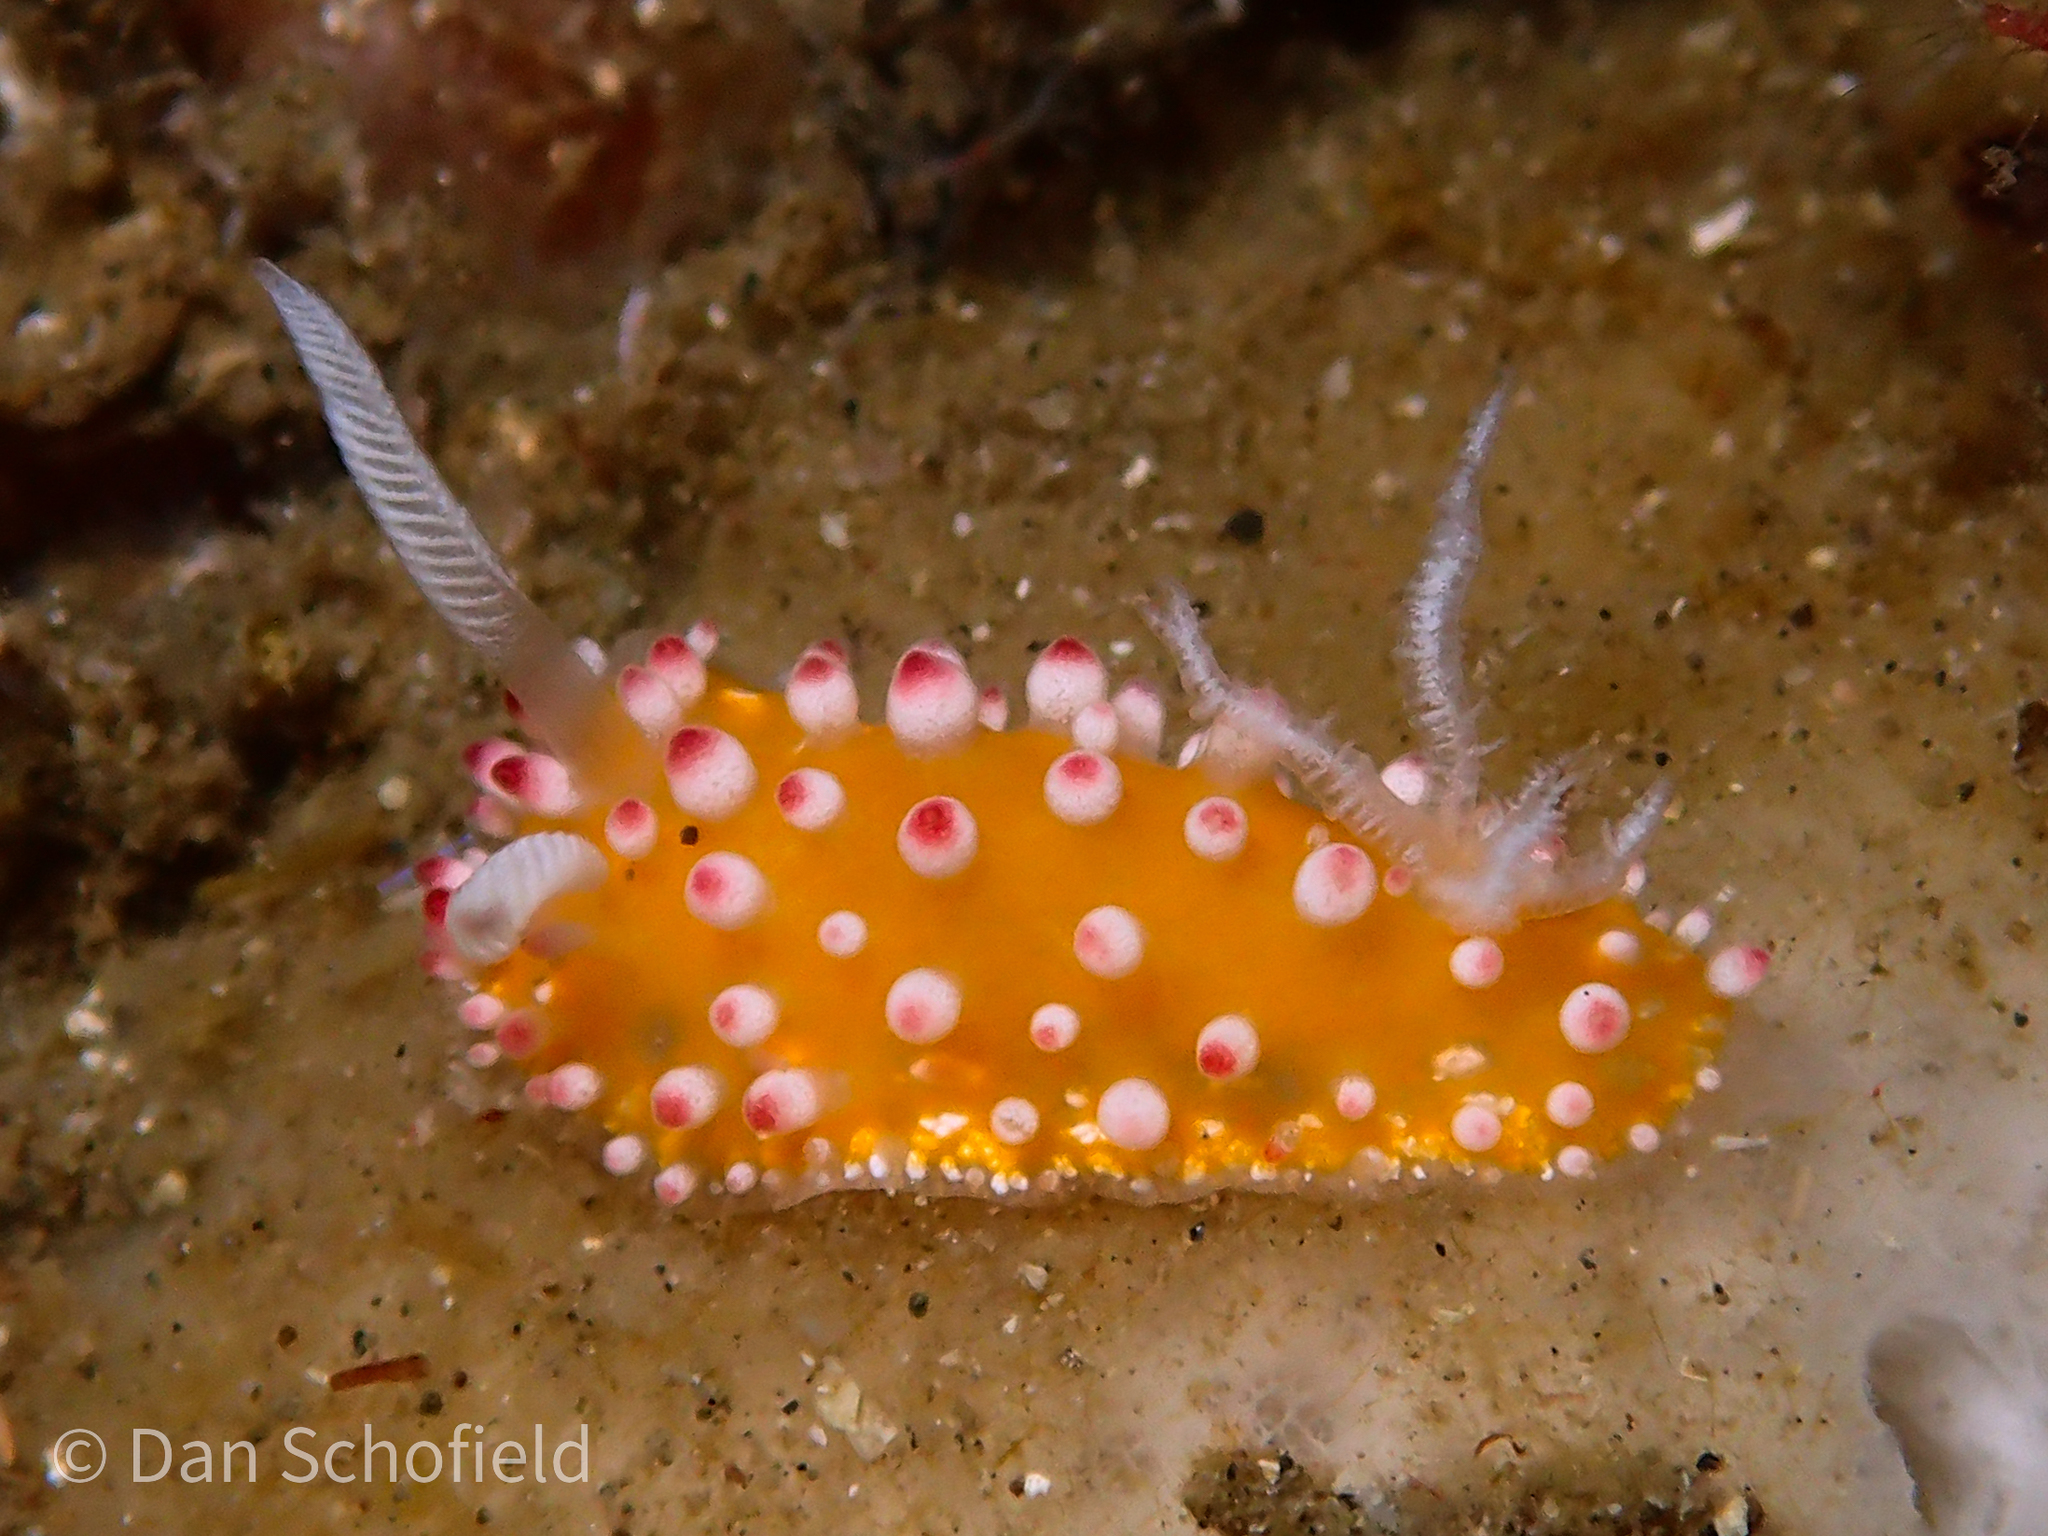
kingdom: Animalia
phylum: Mollusca
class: Gastropoda
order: Nudibranchia
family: Cadlinellidae
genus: Cadlinella
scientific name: Cadlinella ornatissima
